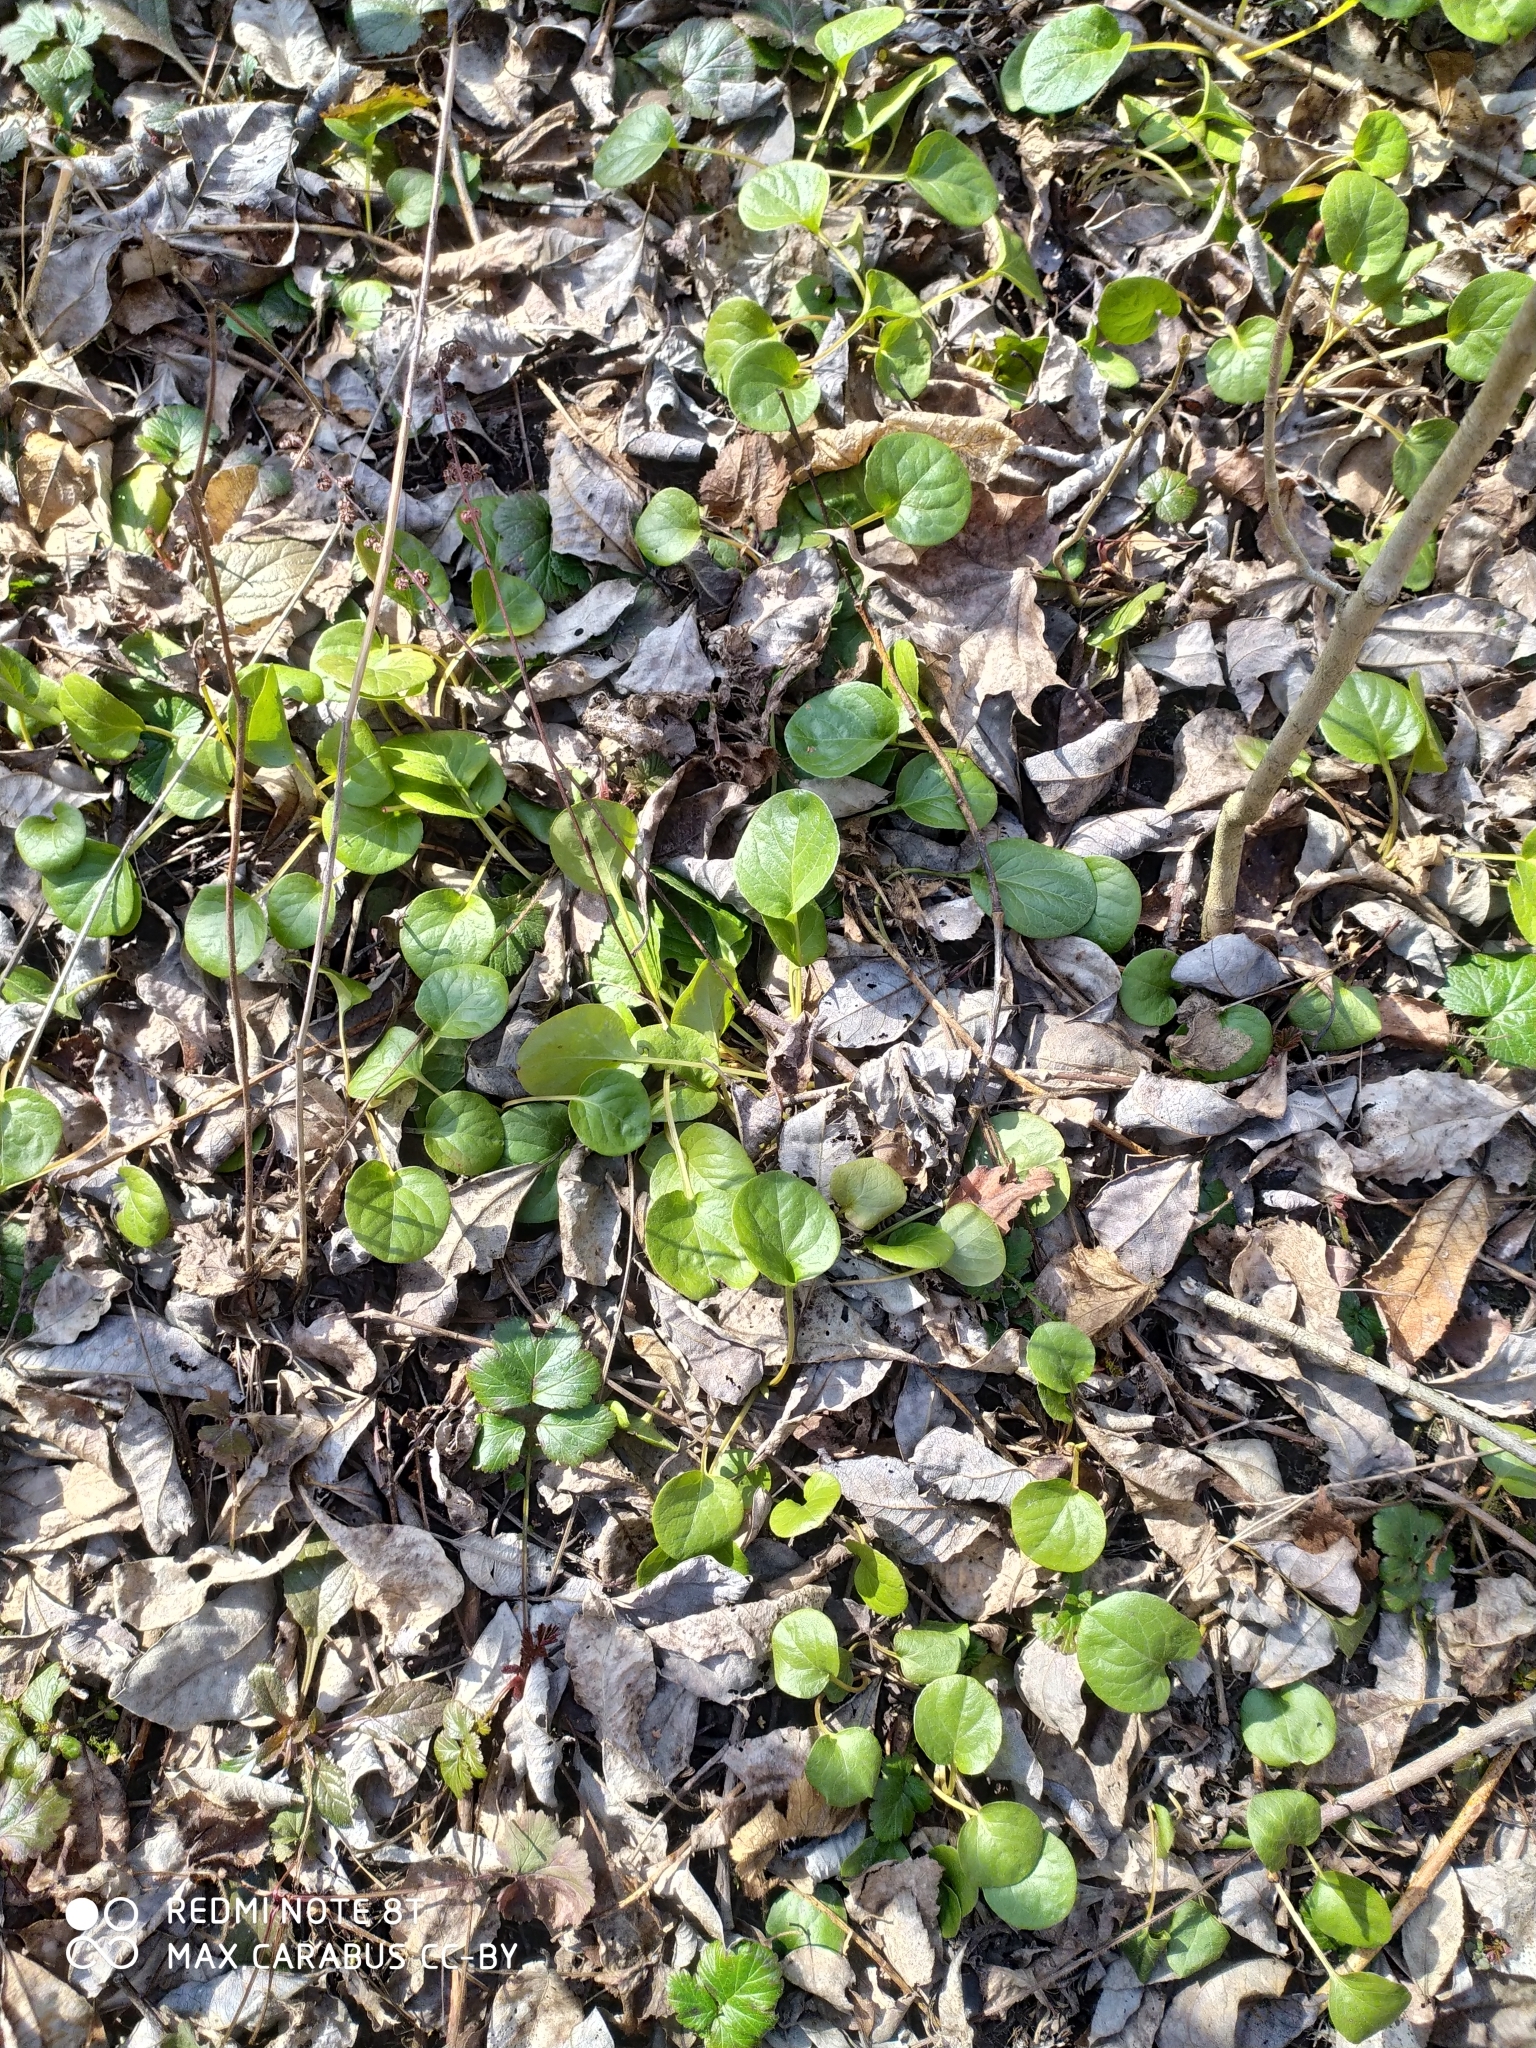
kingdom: Plantae
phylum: Tracheophyta
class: Magnoliopsida
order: Ericales
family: Ericaceae
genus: Pyrola
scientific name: Pyrola rotundifolia
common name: Round-leaved wintergreen
